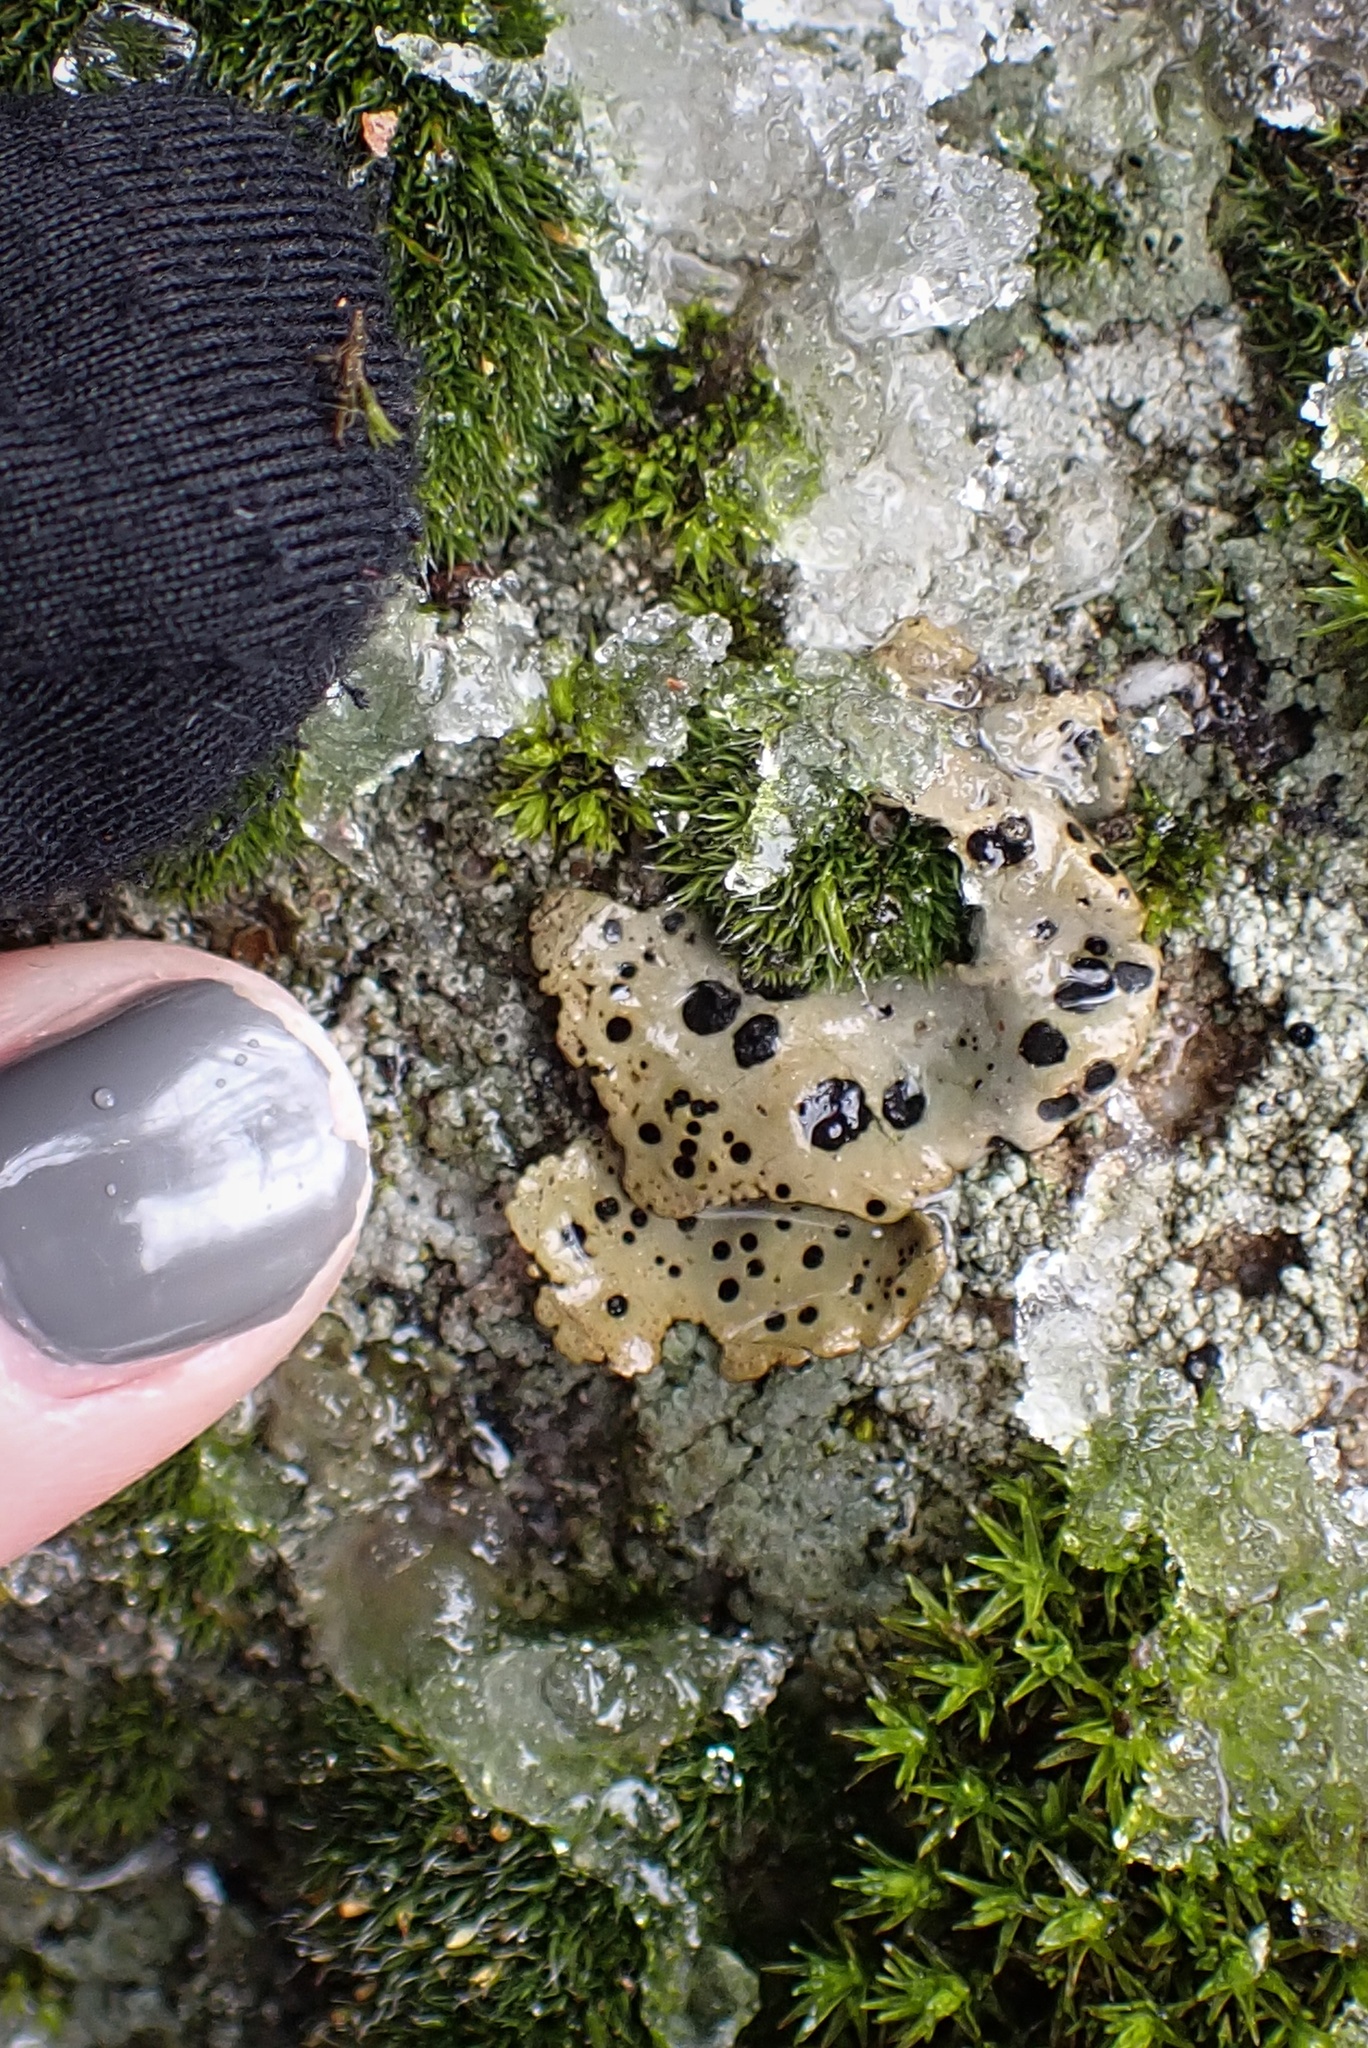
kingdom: Fungi
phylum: Ascomycota
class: Lecanoromycetes
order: Umbilicariales
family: Umbilicariaceae
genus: Umbilicaria
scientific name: Umbilicaria phaea
